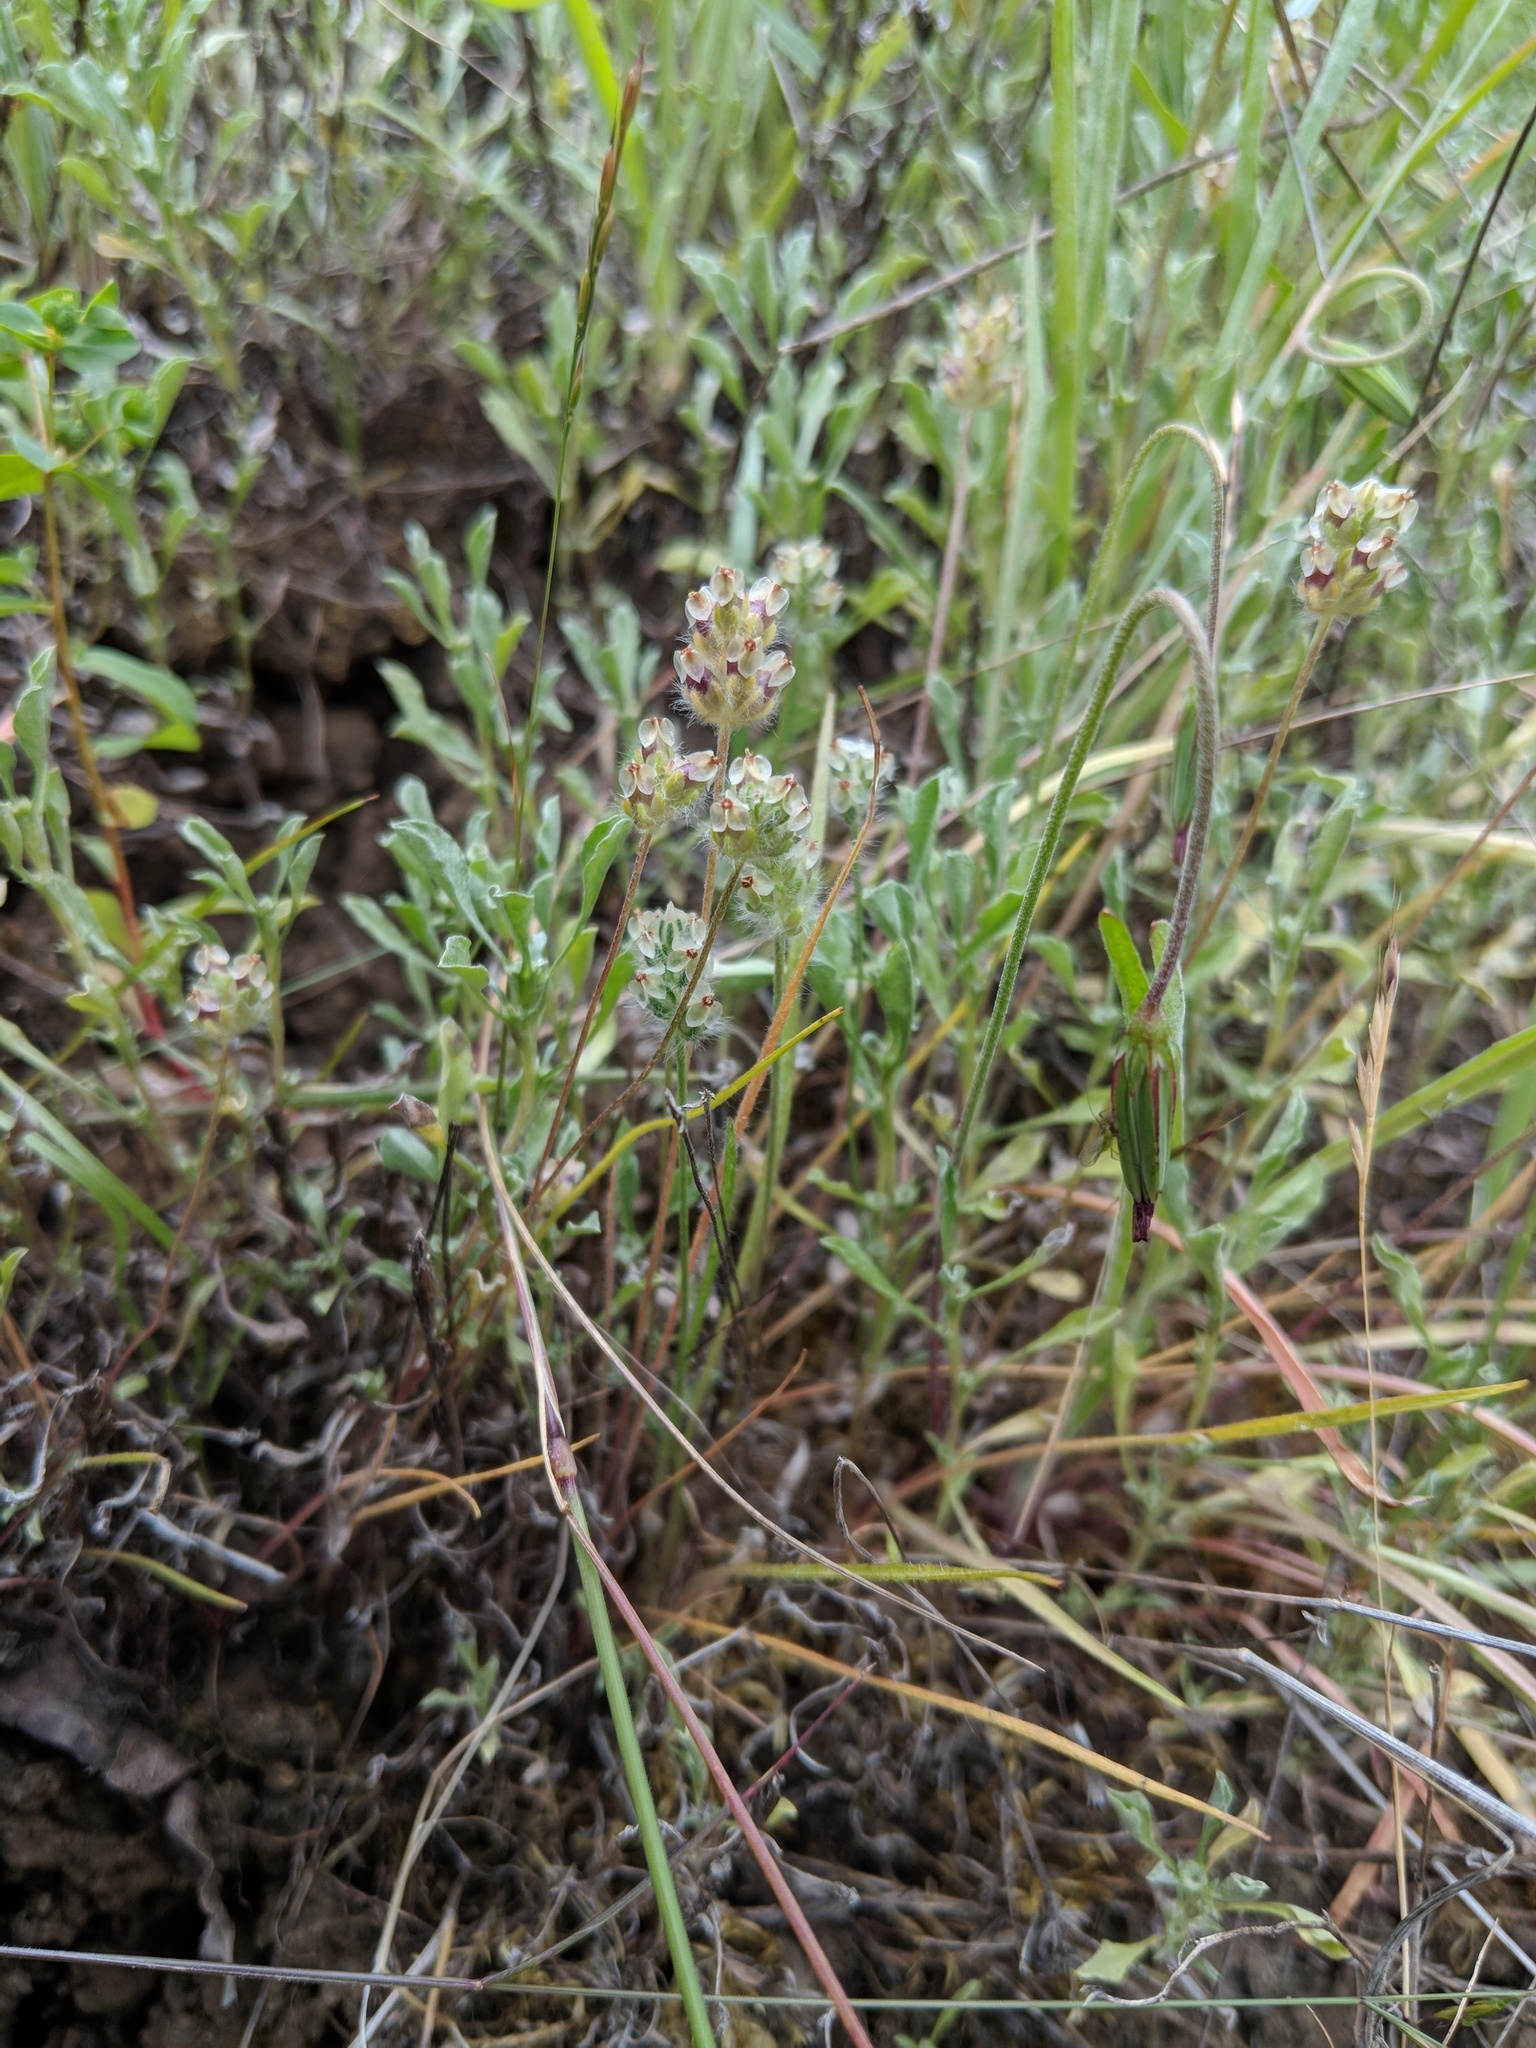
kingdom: Plantae
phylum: Tracheophyta
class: Magnoliopsida
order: Lamiales
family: Plantaginaceae
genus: Plantago
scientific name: Plantago erecta
